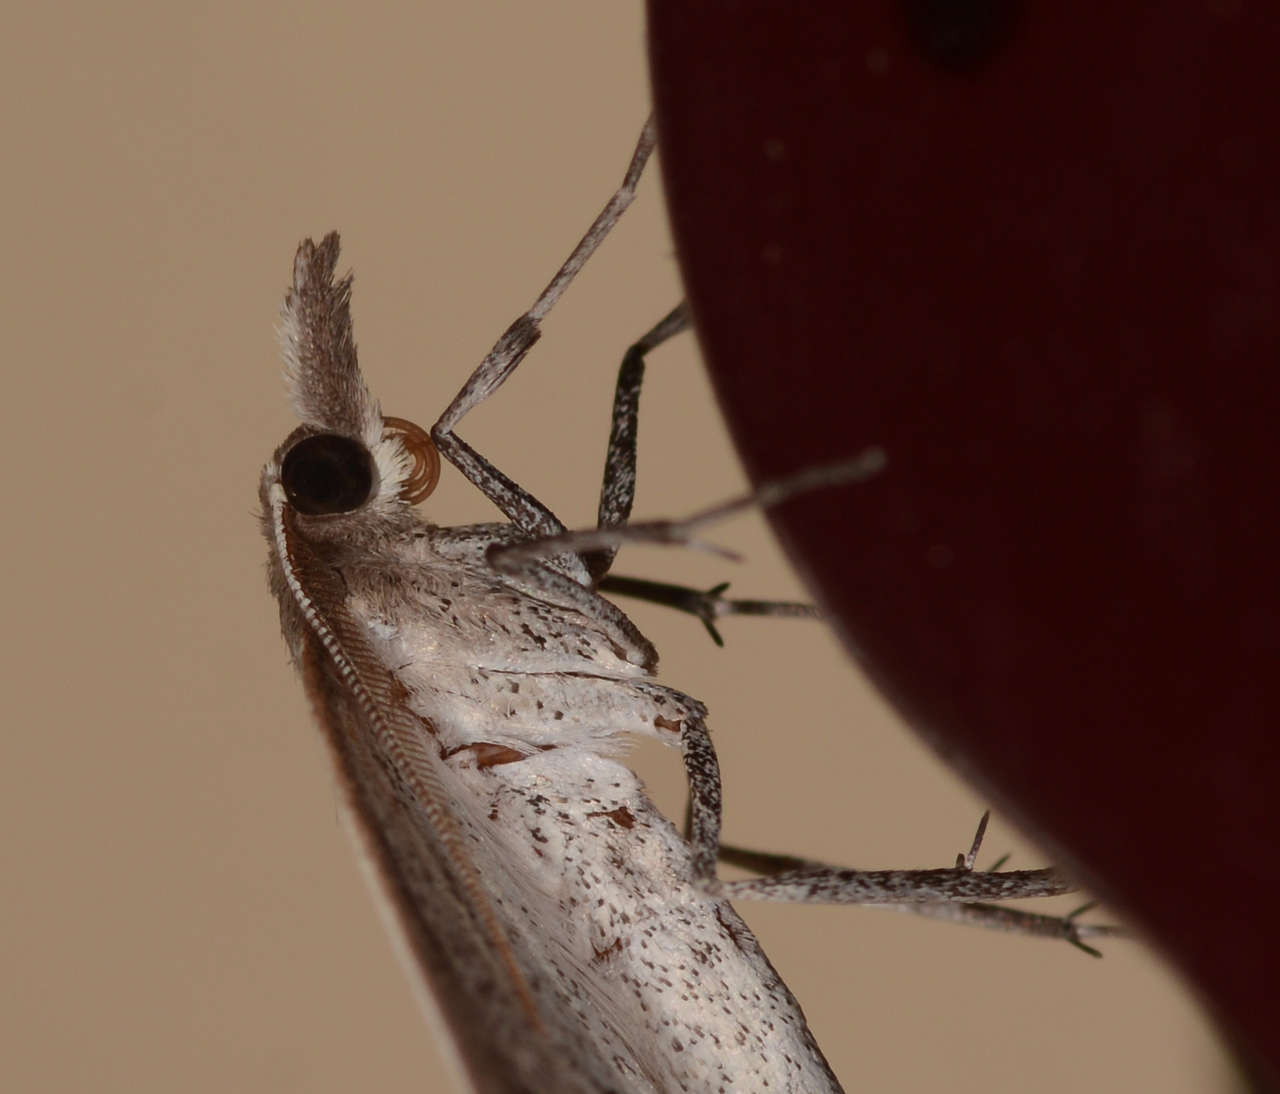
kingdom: Animalia
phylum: Arthropoda
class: Insecta
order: Lepidoptera
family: Geometridae
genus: Epidesmia
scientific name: Epidesmia perfabricata
